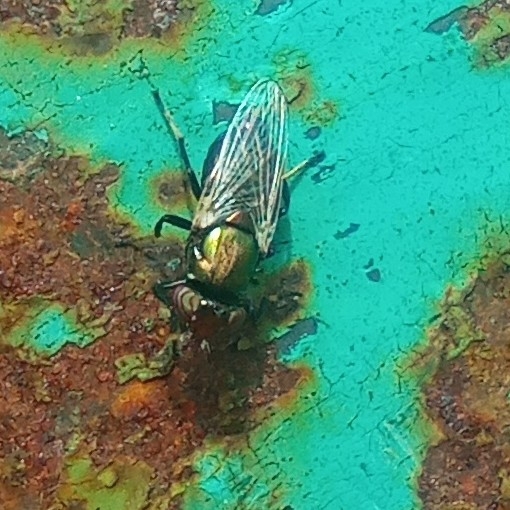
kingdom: Animalia
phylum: Arthropoda
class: Insecta
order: Diptera
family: Ulidiidae
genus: Physiphora
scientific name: Physiphora alceae
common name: Picture-winged fly
